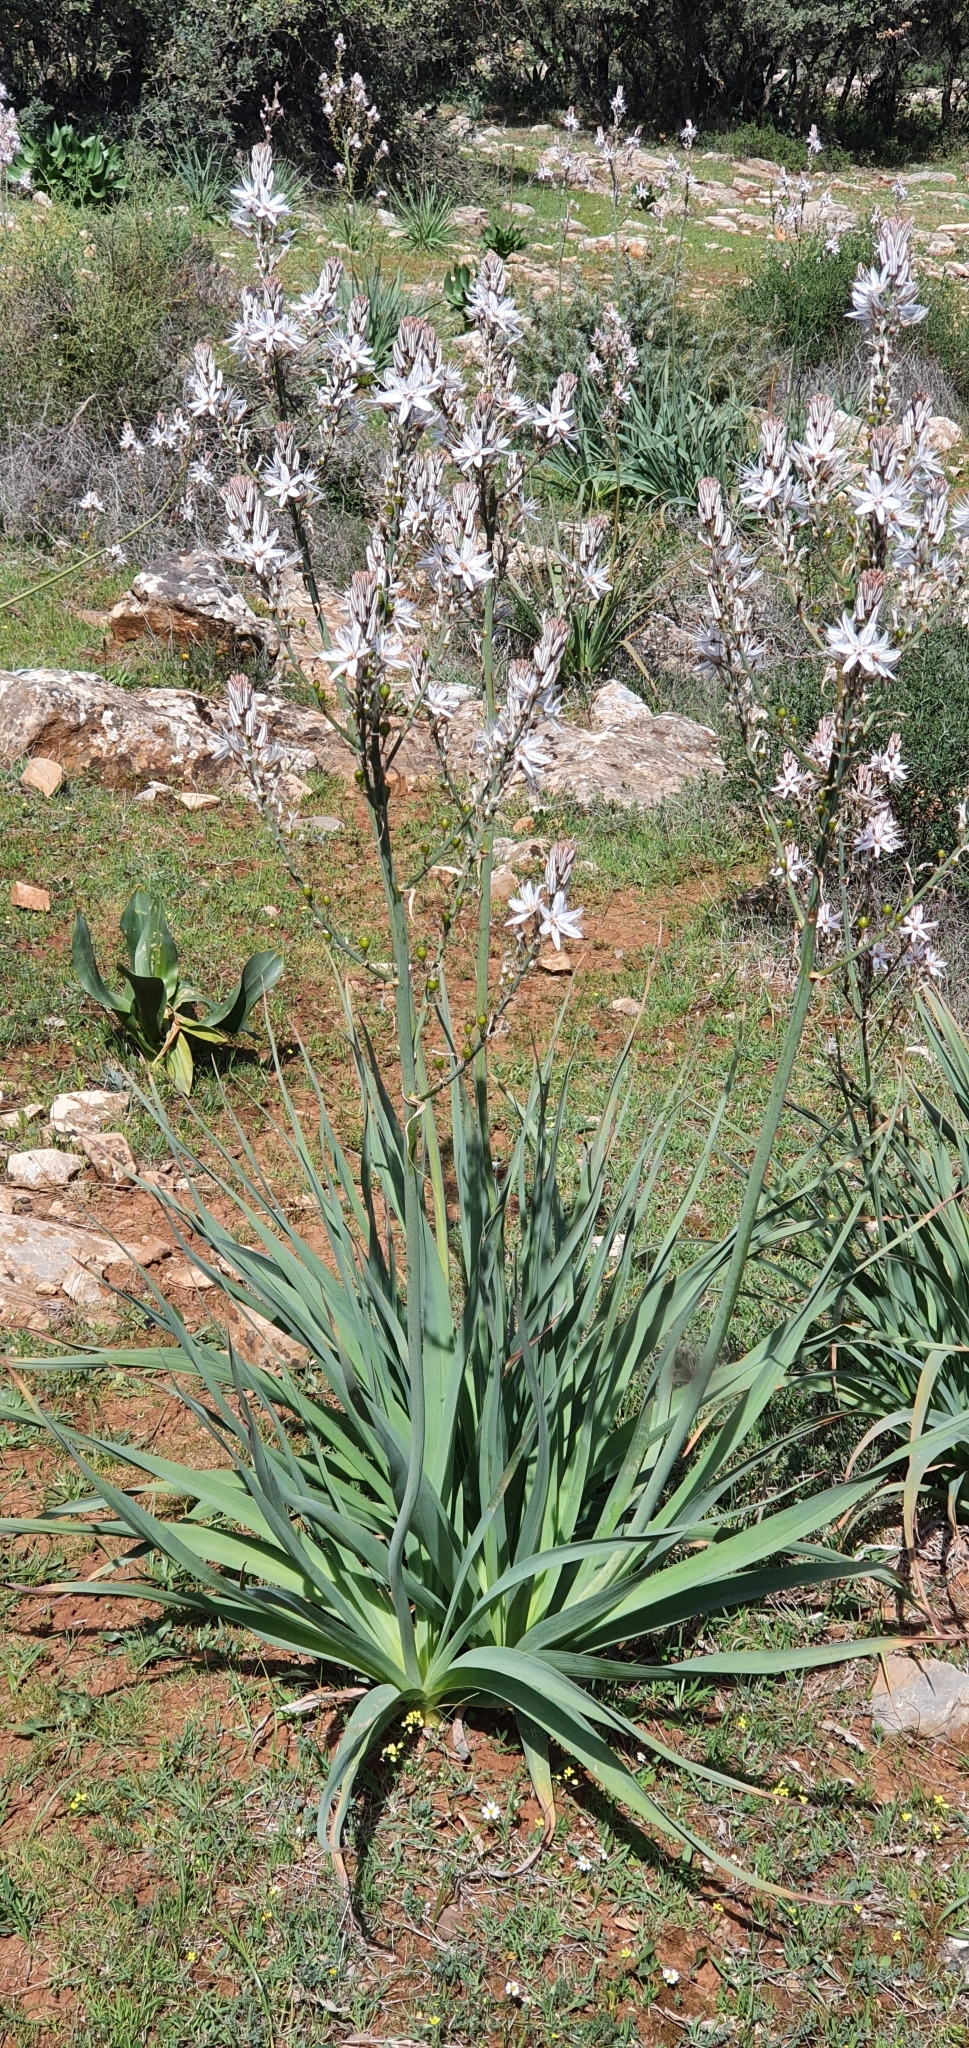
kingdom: Plantae
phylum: Tracheophyta
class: Liliopsida
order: Asparagales
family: Asphodelaceae
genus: Asphodelus
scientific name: Asphodelus ramosus
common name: Silverrod
